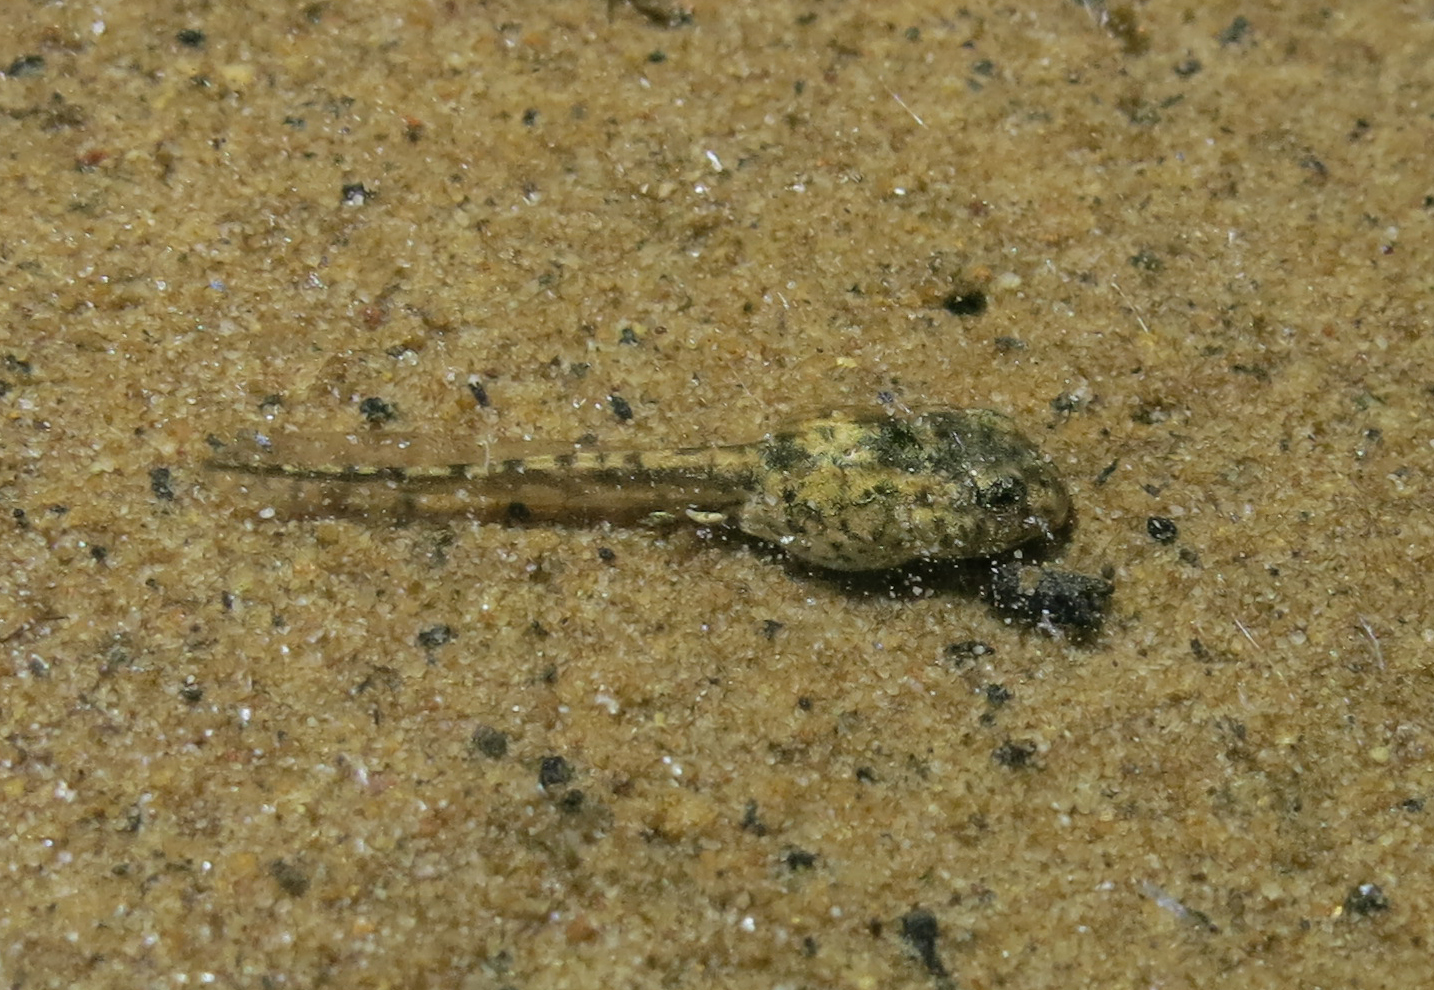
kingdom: Animalia
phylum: Chordata
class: Amphibia
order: Anura
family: Pyxicephalidae
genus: Tomopterna
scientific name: Tomopterna delalandii
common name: Delalande's burrowing bullfrog
